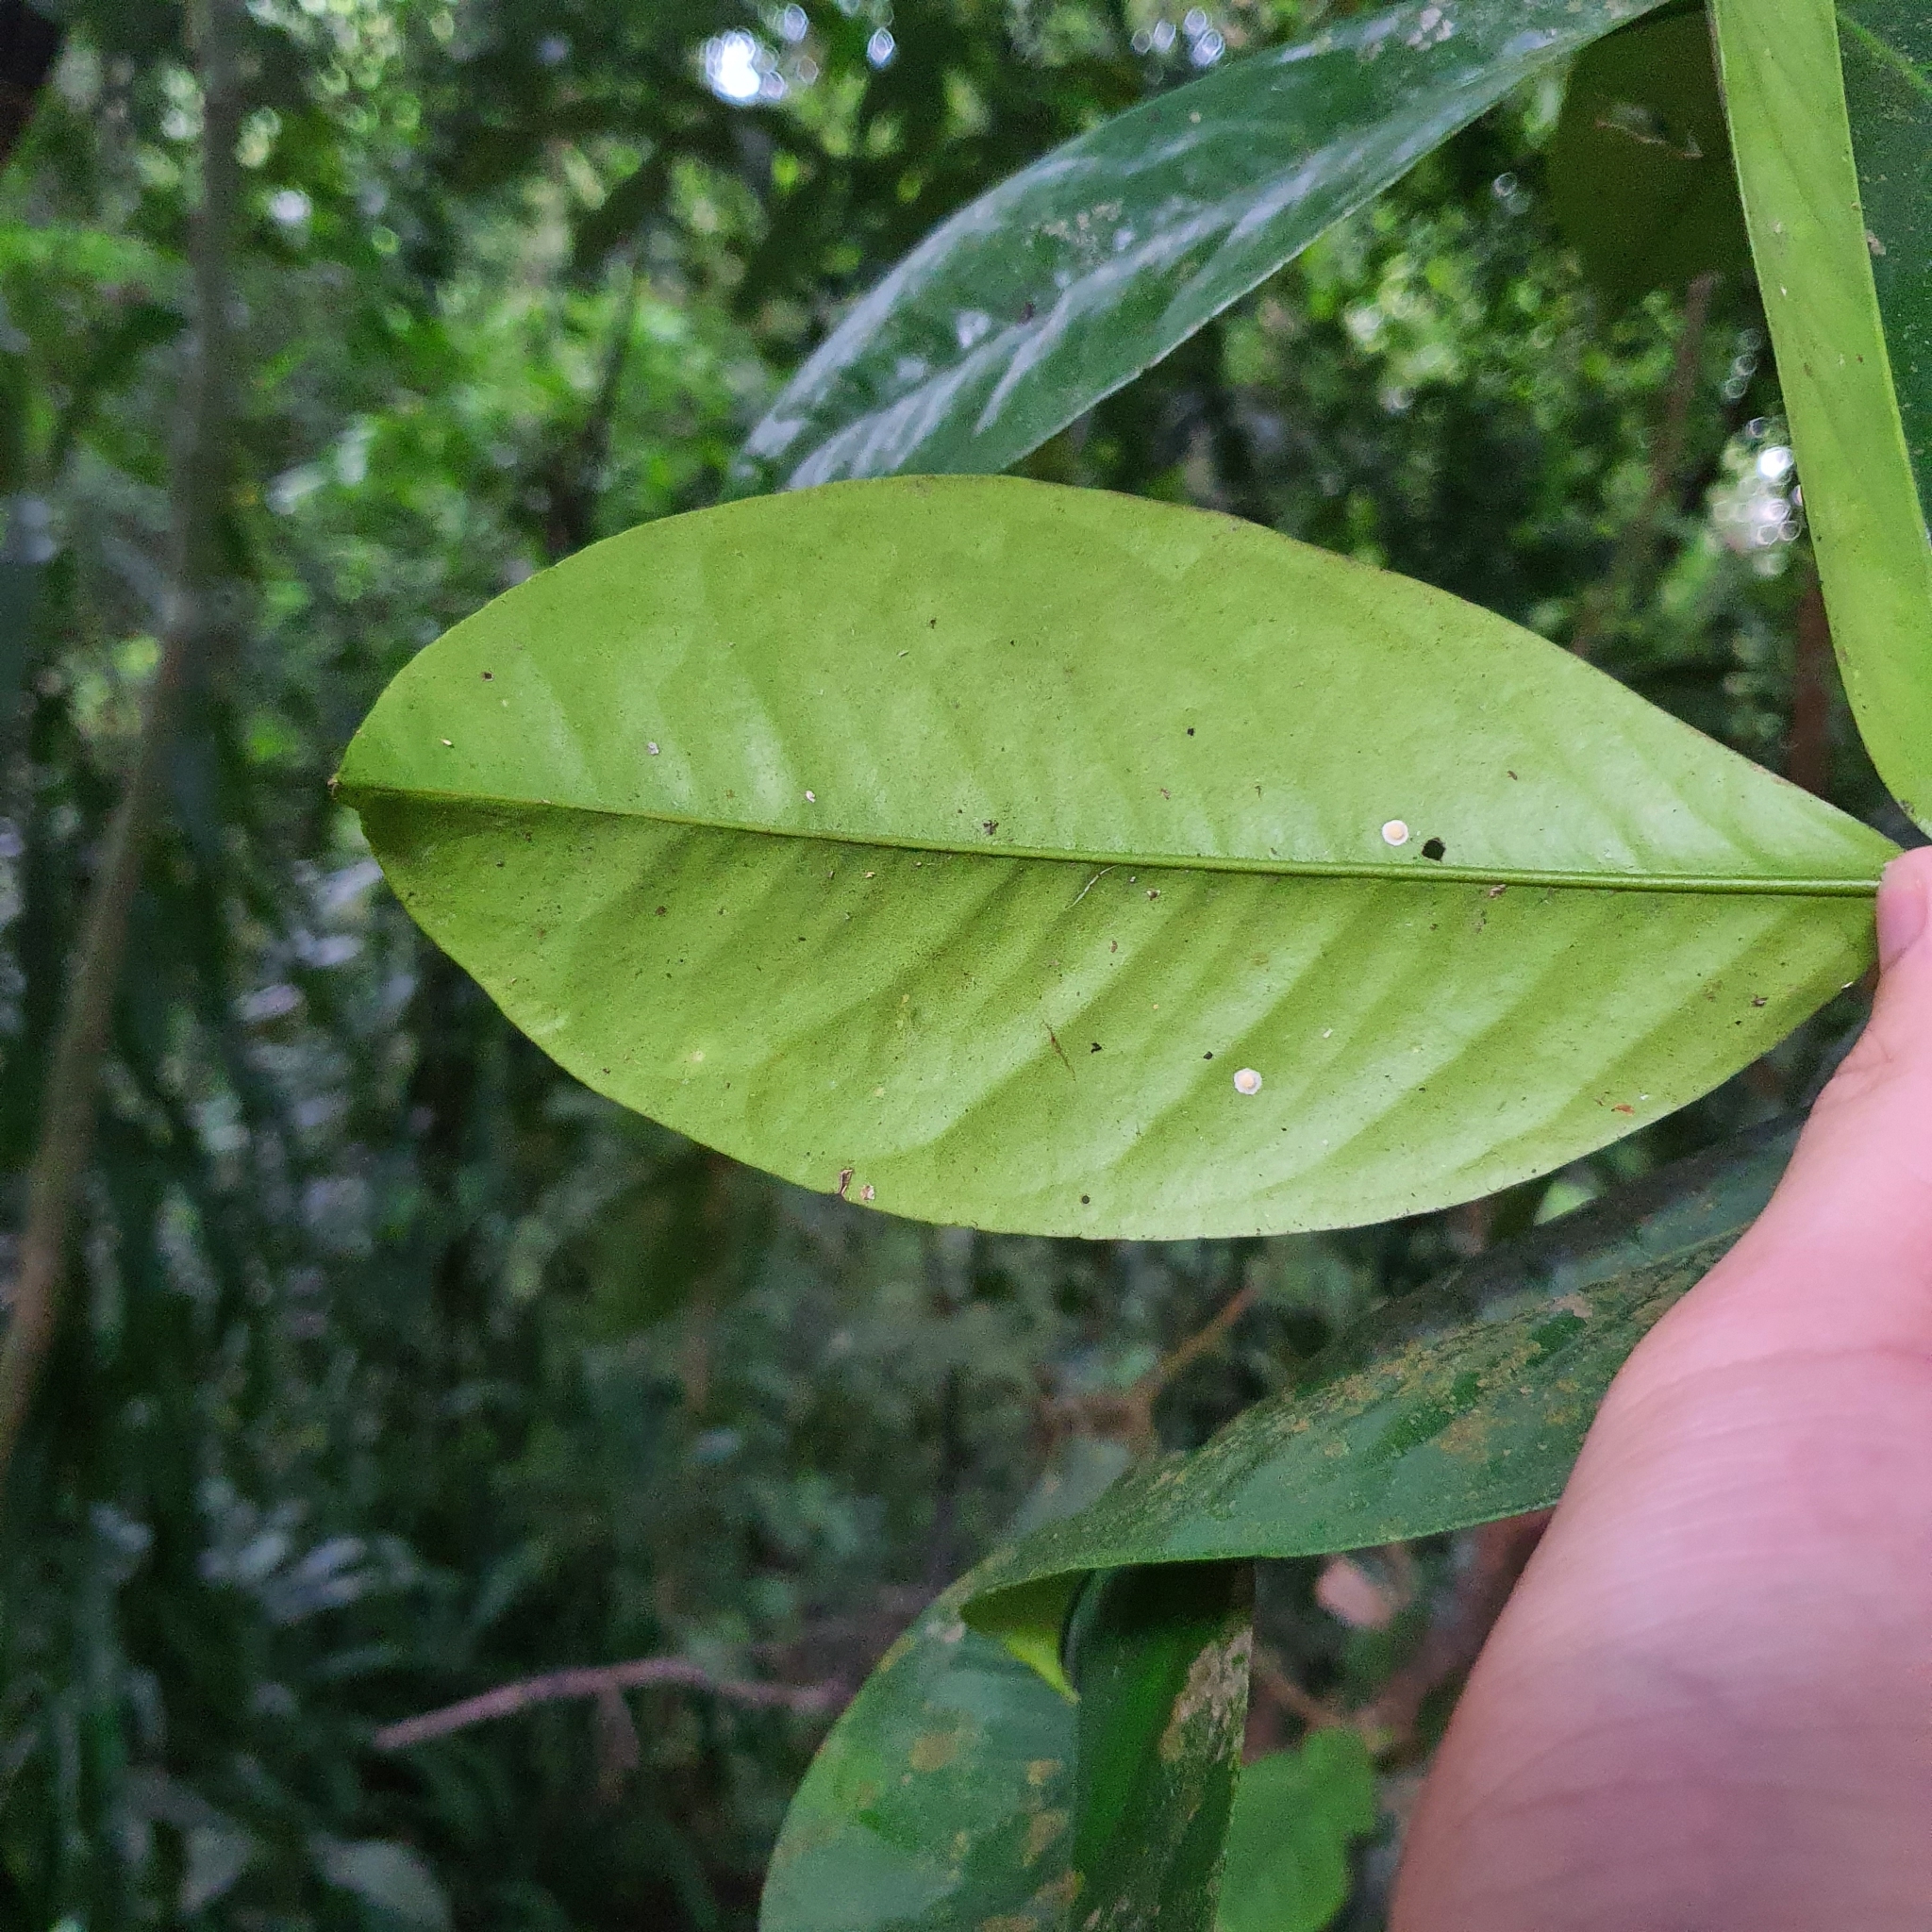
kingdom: Plantae
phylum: Tracheophyta
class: Magnoliopsida
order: Sapindales
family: Rutaceae
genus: Luvunga
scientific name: Luvunga sarmentosa
